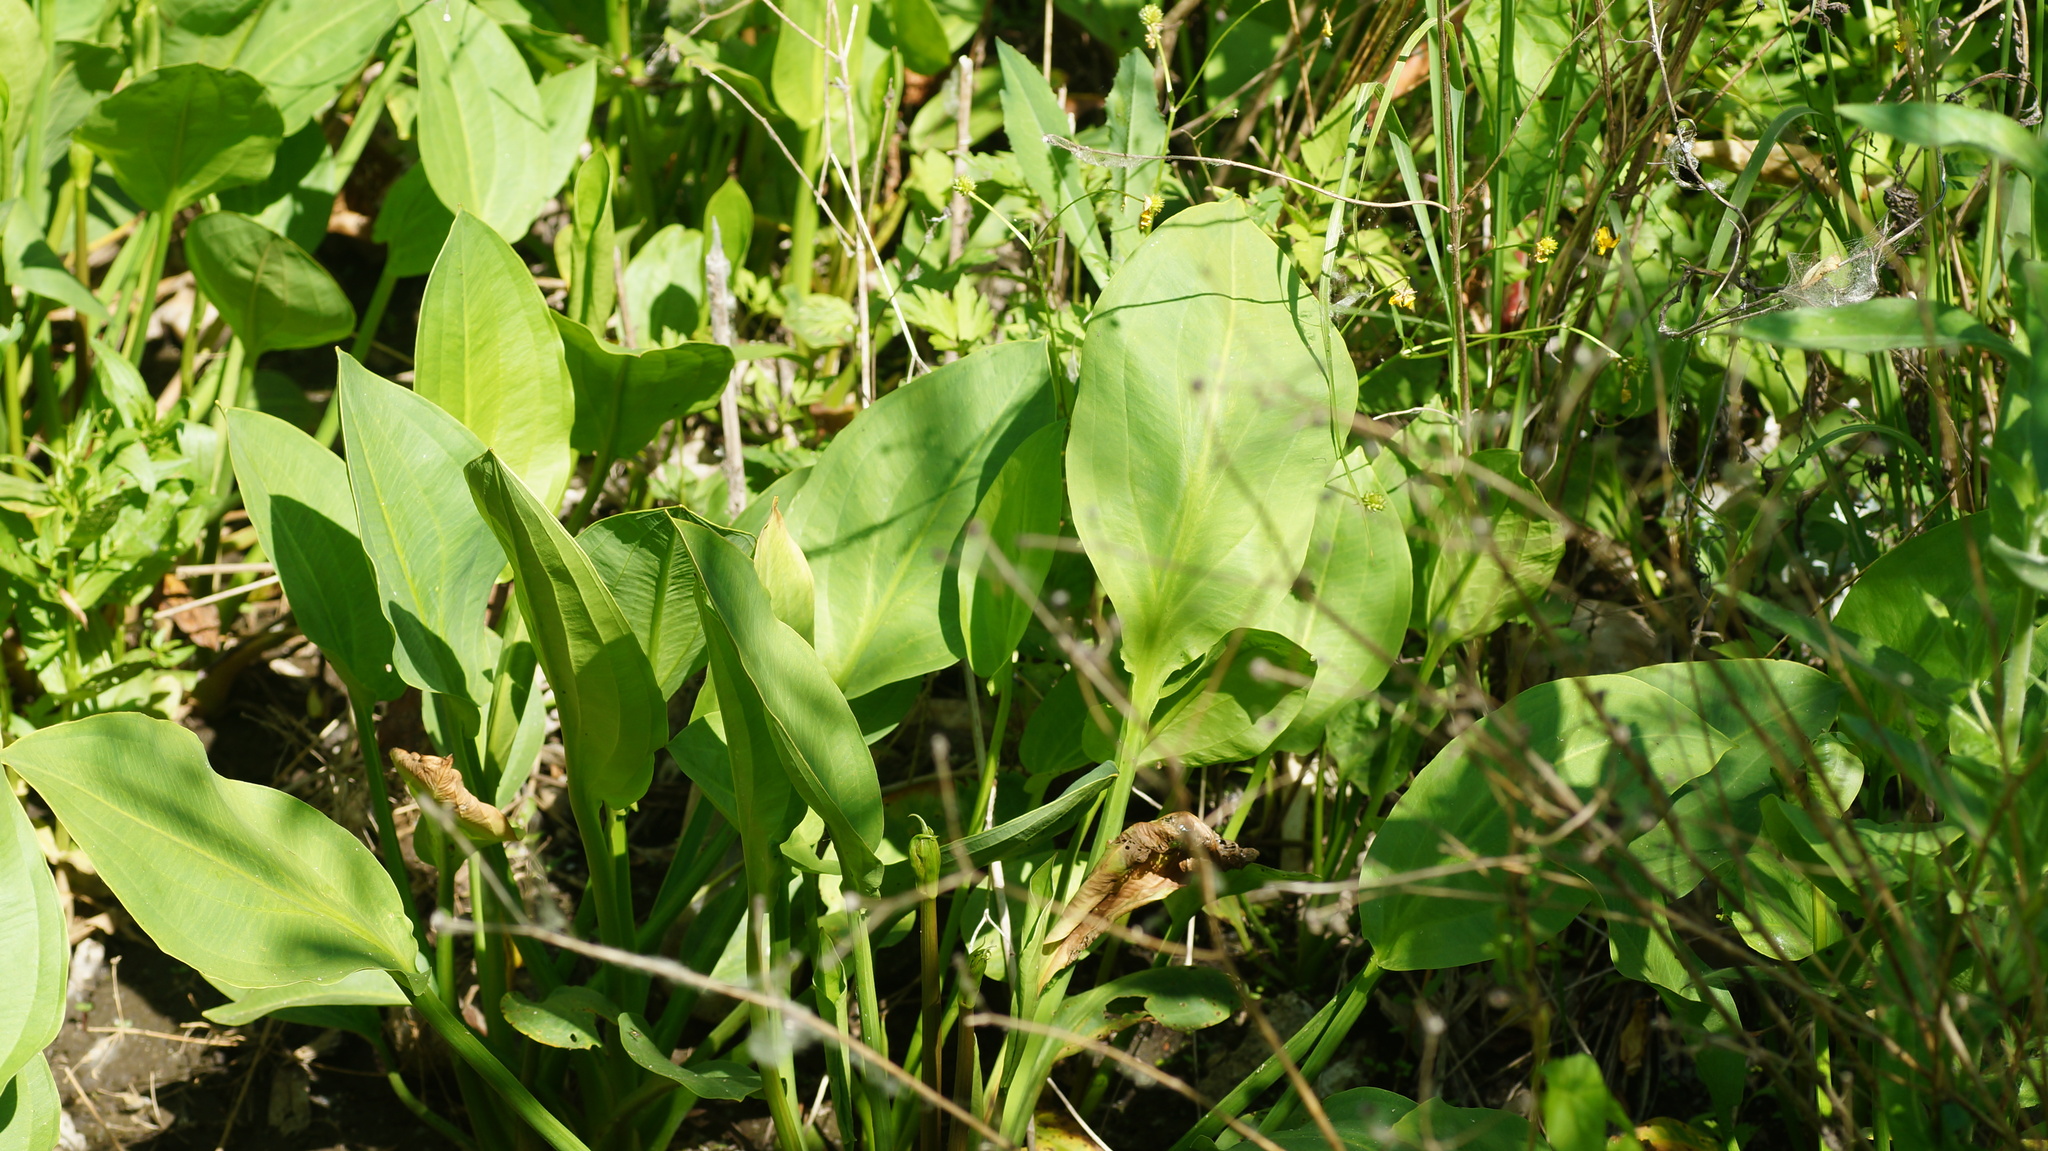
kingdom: Plantae
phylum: Tracheophyta
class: Liliopsida
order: Alismatales
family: Alismataceae
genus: Alisma
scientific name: Alisma plantago-aquatica
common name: Water-plantain
